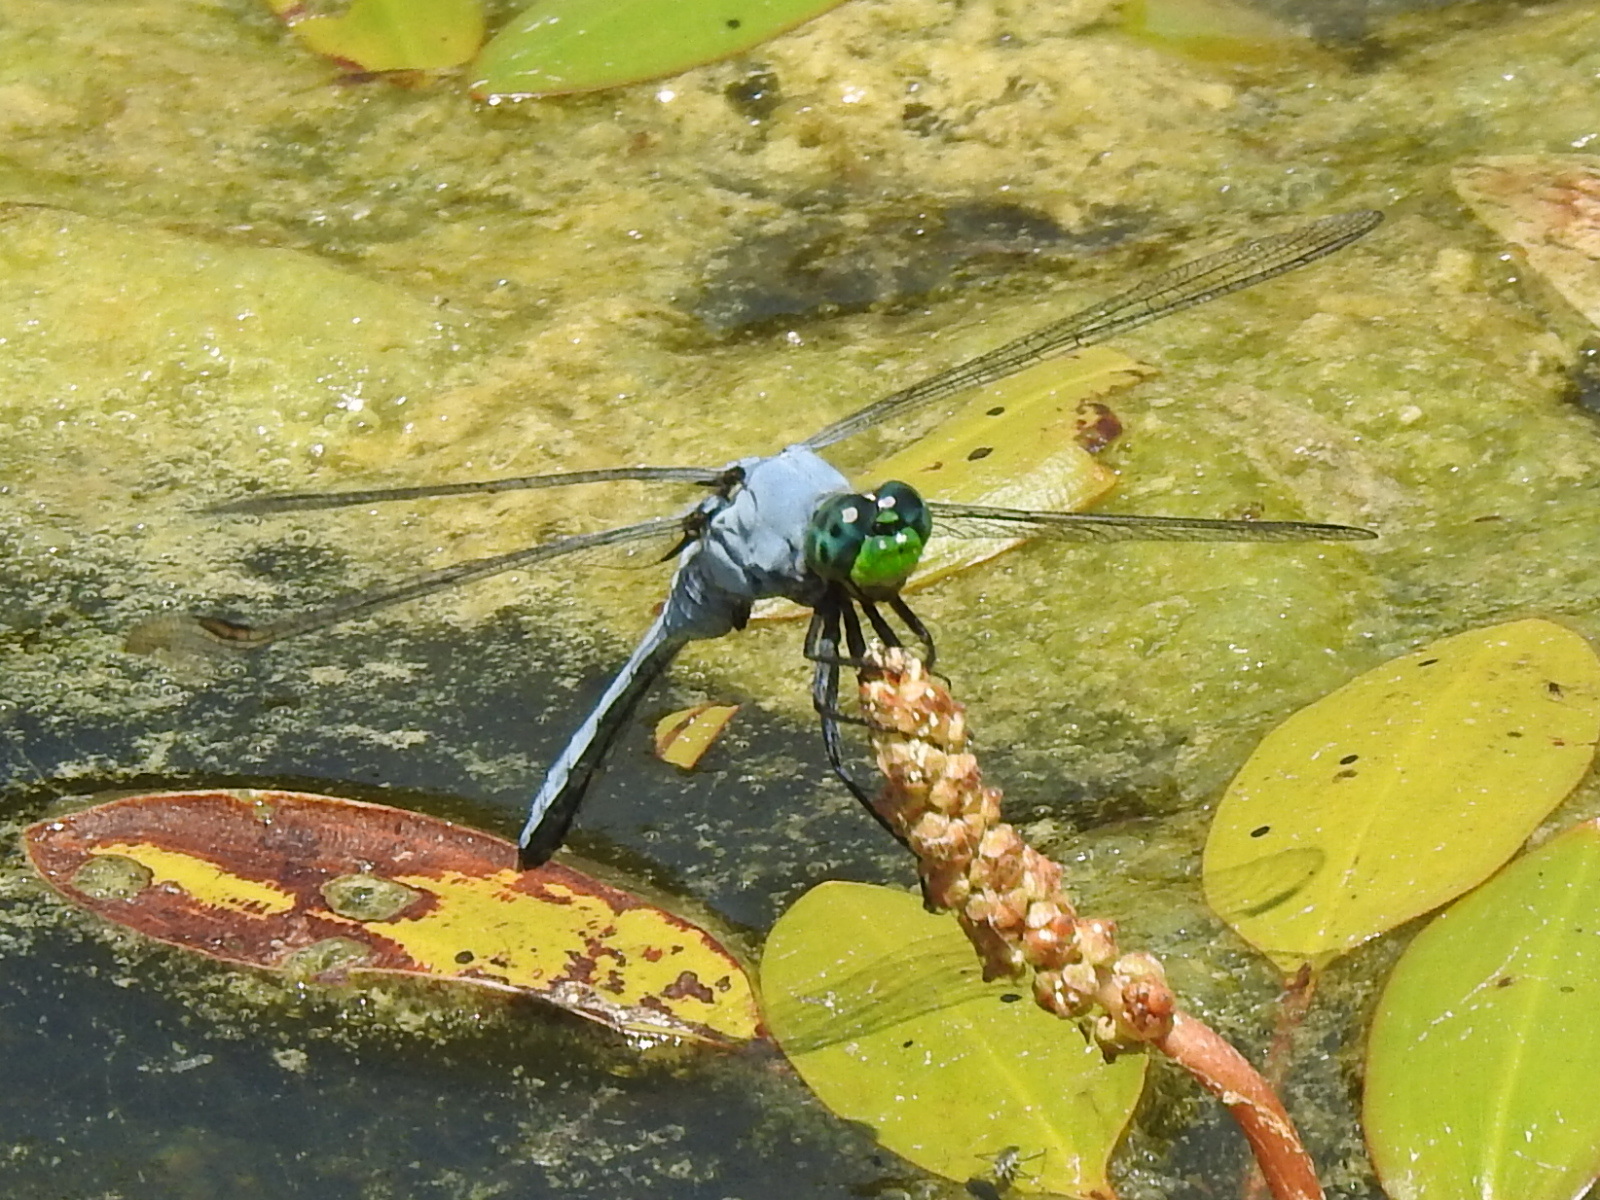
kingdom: Animalia
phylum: Arthropoda
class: Insecta
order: Odonata
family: Libellulidae
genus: Erythemis
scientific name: Erythemis simplicicollis
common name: Eastern pondhawk
